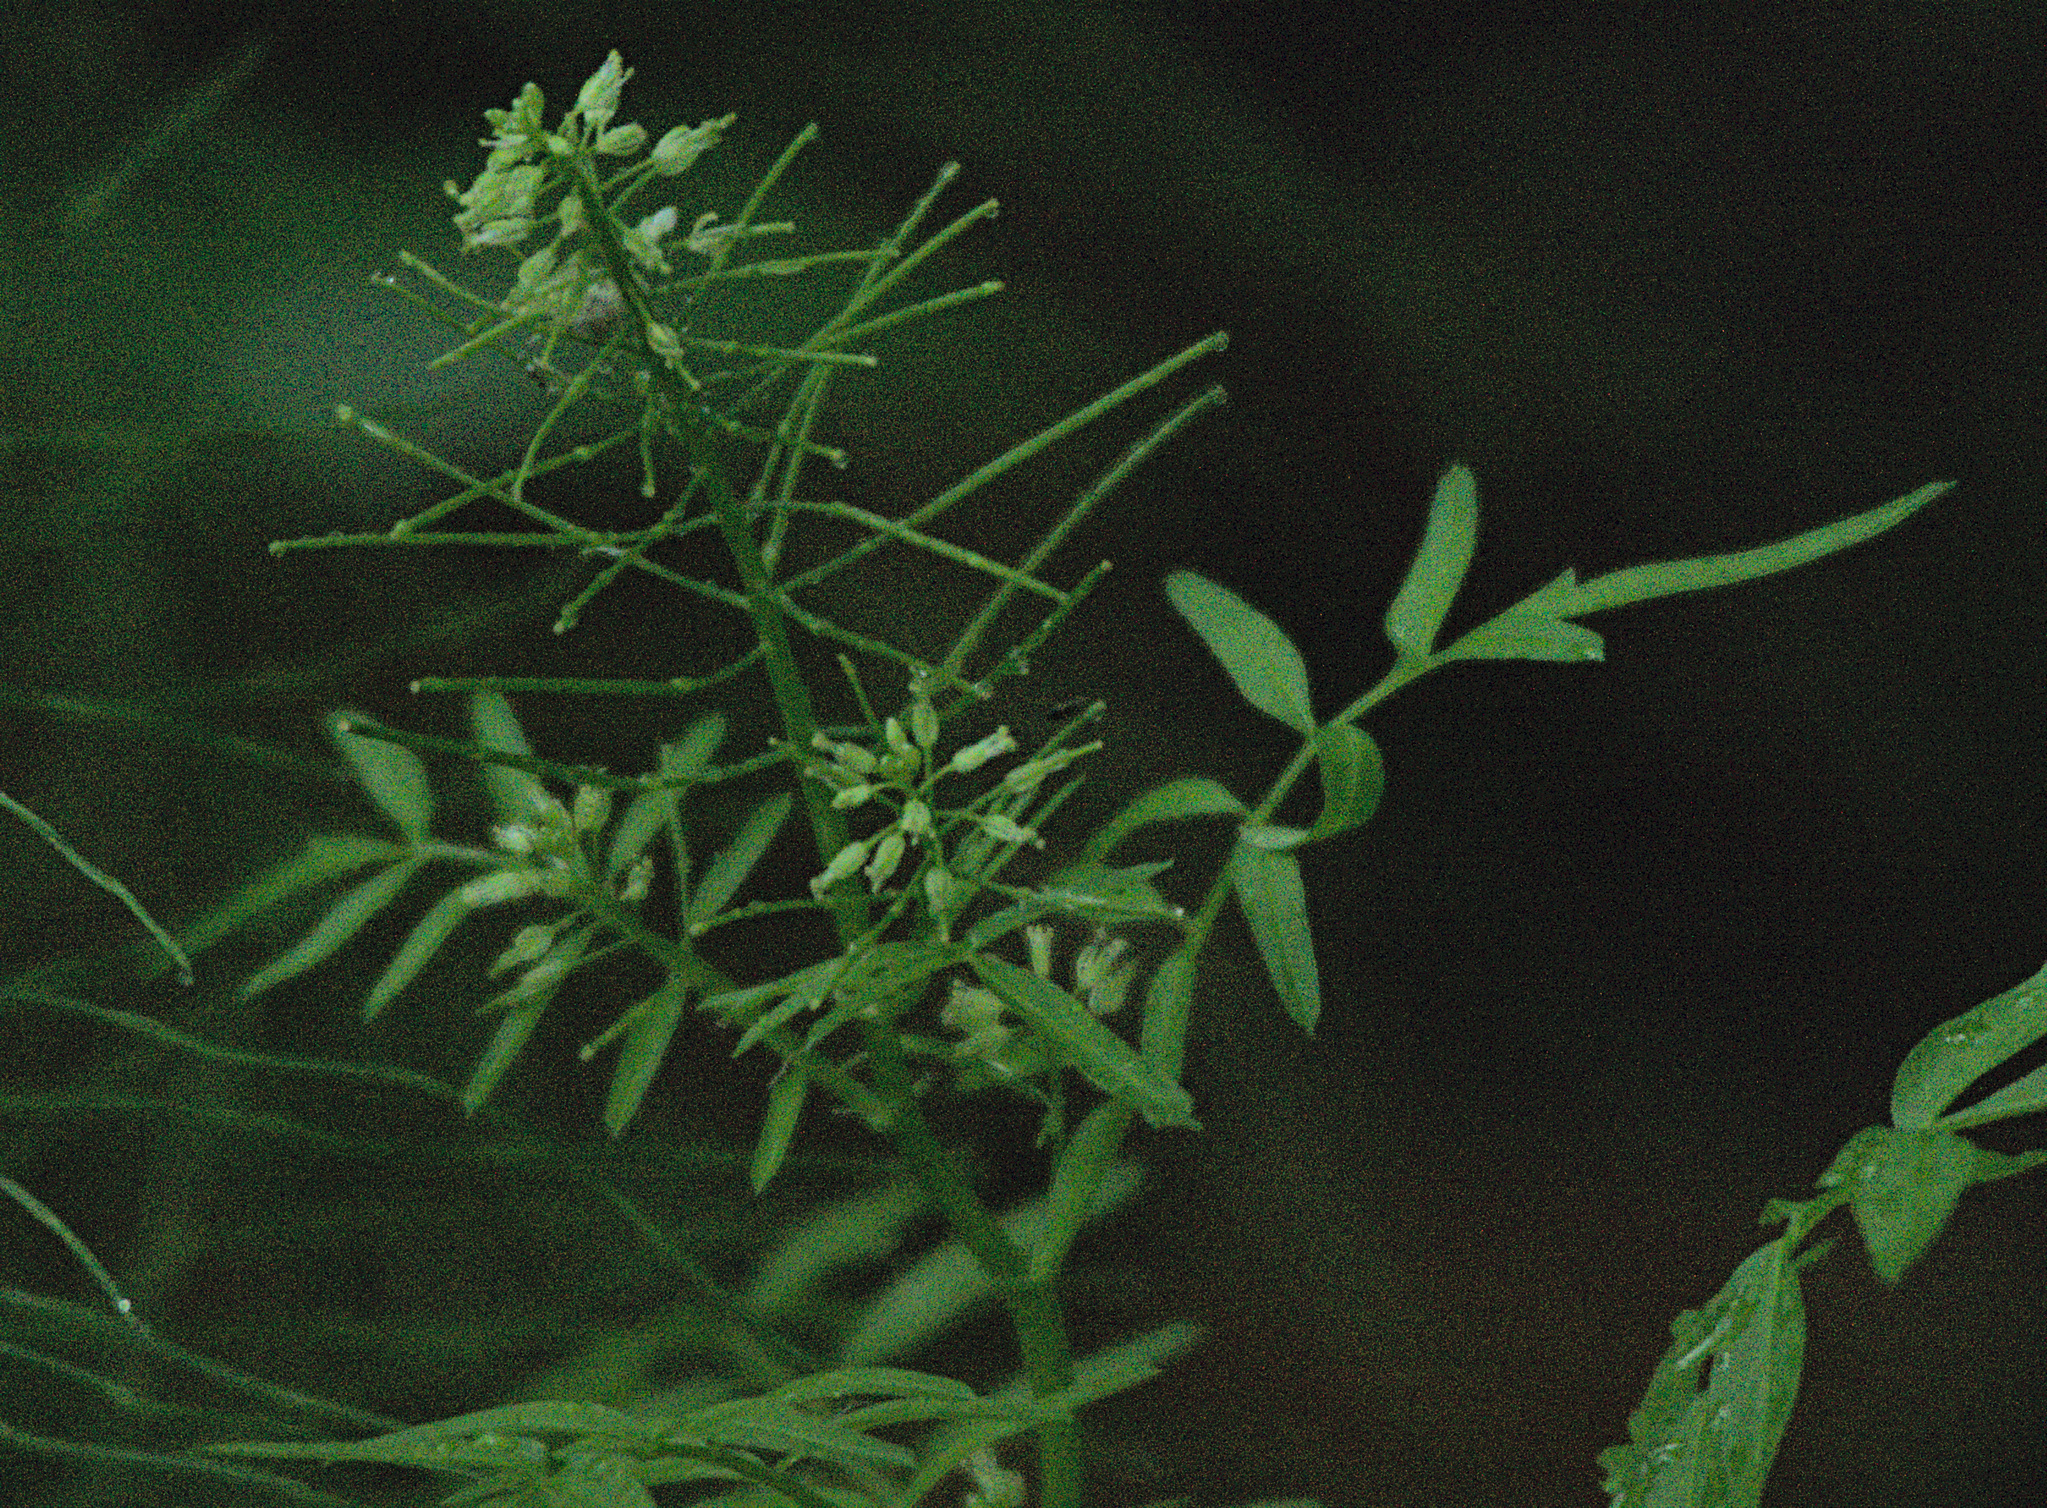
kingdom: Plantae
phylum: Tracheophyta
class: Magnoliopsida
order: Brassicales
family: Brassicaceae
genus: Cardamine
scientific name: Cardamine impatiens
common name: Narrow-leaved bitter-cress
